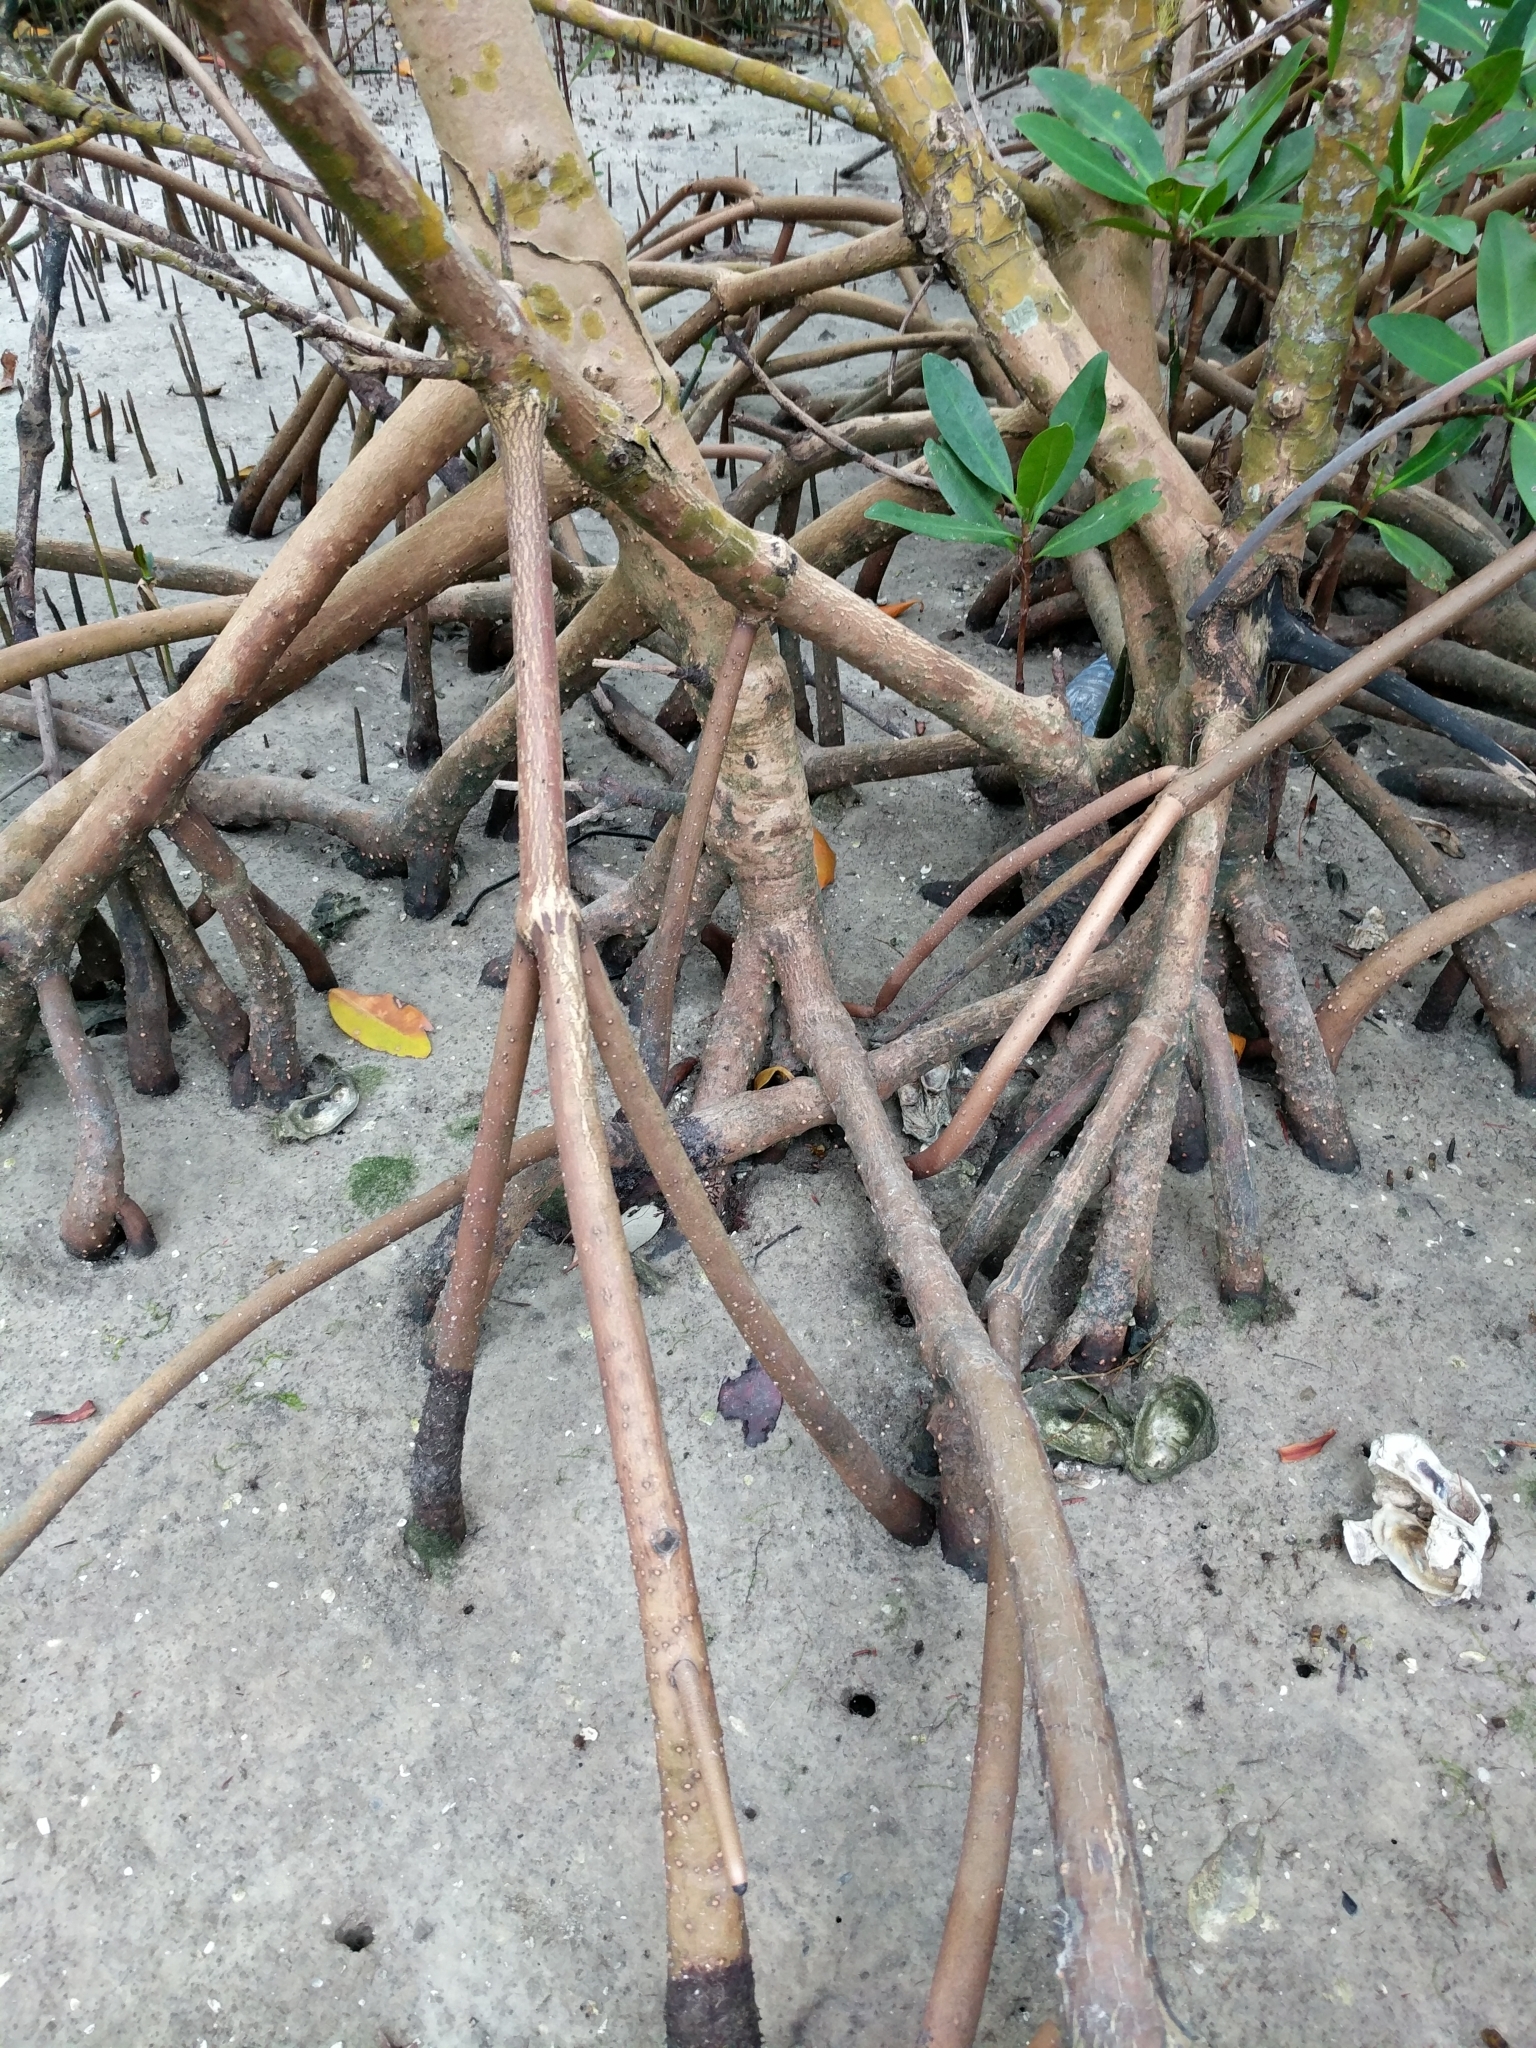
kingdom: Plantae
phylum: Tracheophyta
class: Magnoliopsida
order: Malpighiales
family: Rhizophoraceae
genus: Rhizophora
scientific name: Rhizophora mangle
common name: Red mangrove
